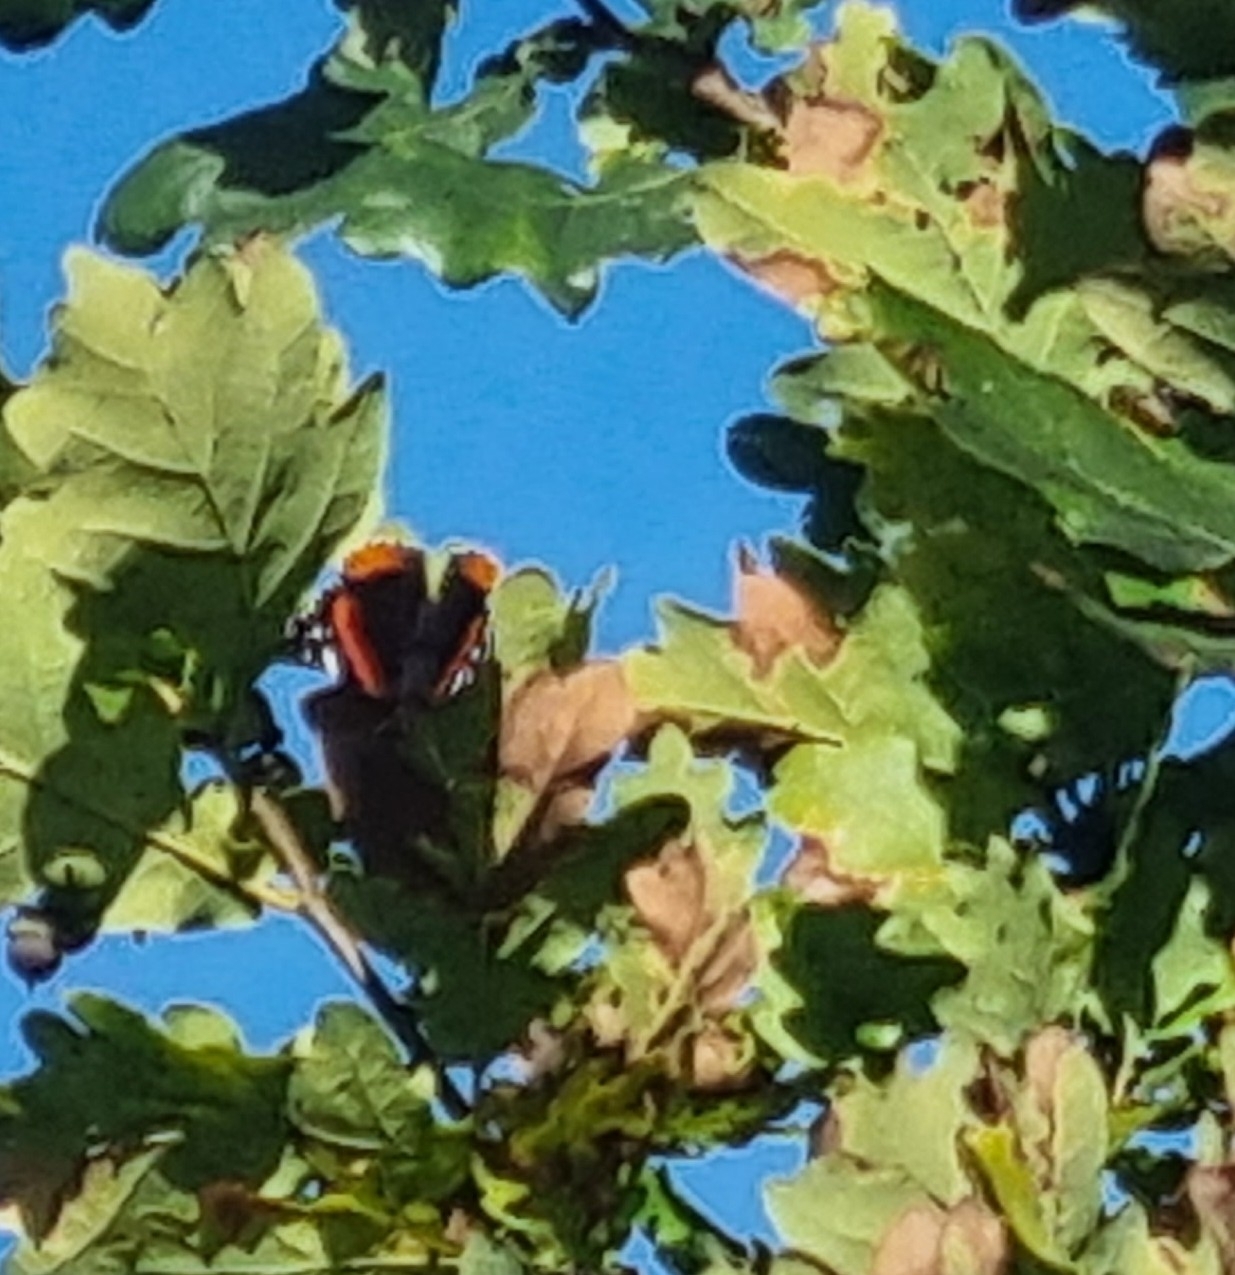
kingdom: Animalia
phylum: Arthropoda
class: Insecta
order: Lepidoptera
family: Nymphalidae
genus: Vanessa
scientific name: Vanessa atalanta
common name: Red admiral
